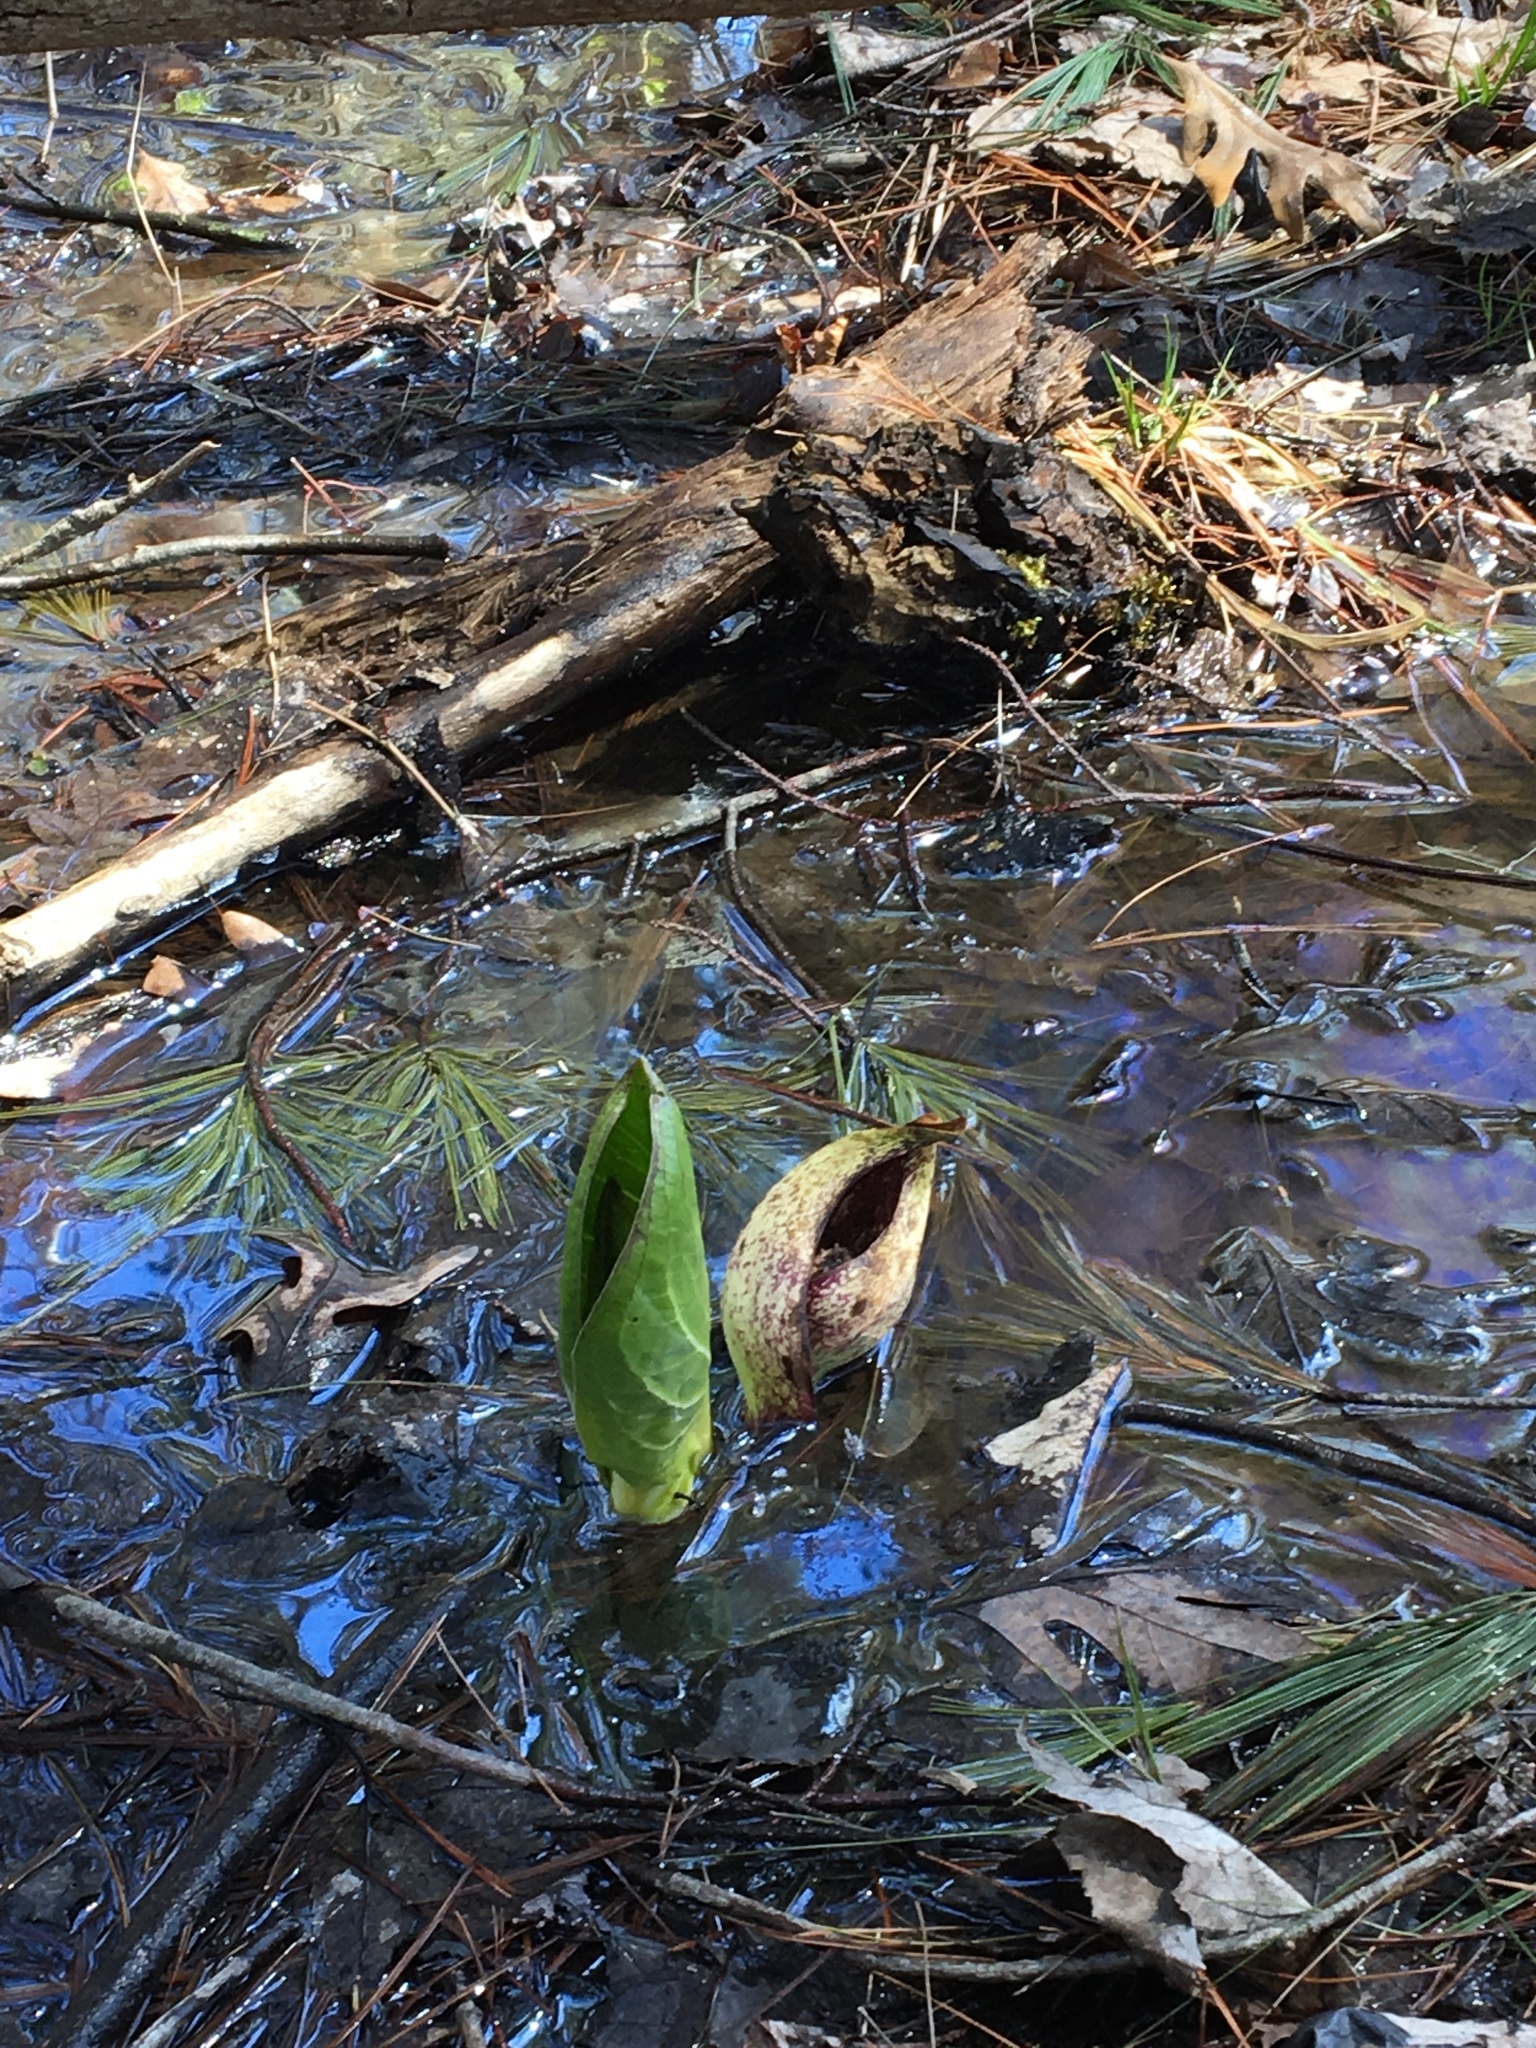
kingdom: Plantae
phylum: Tracheophyta
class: Liliopsida
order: Alismatales
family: Araceae
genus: Symplocarpus
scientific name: Symplocarpus foetidus
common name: Eastern skunk cabbage
